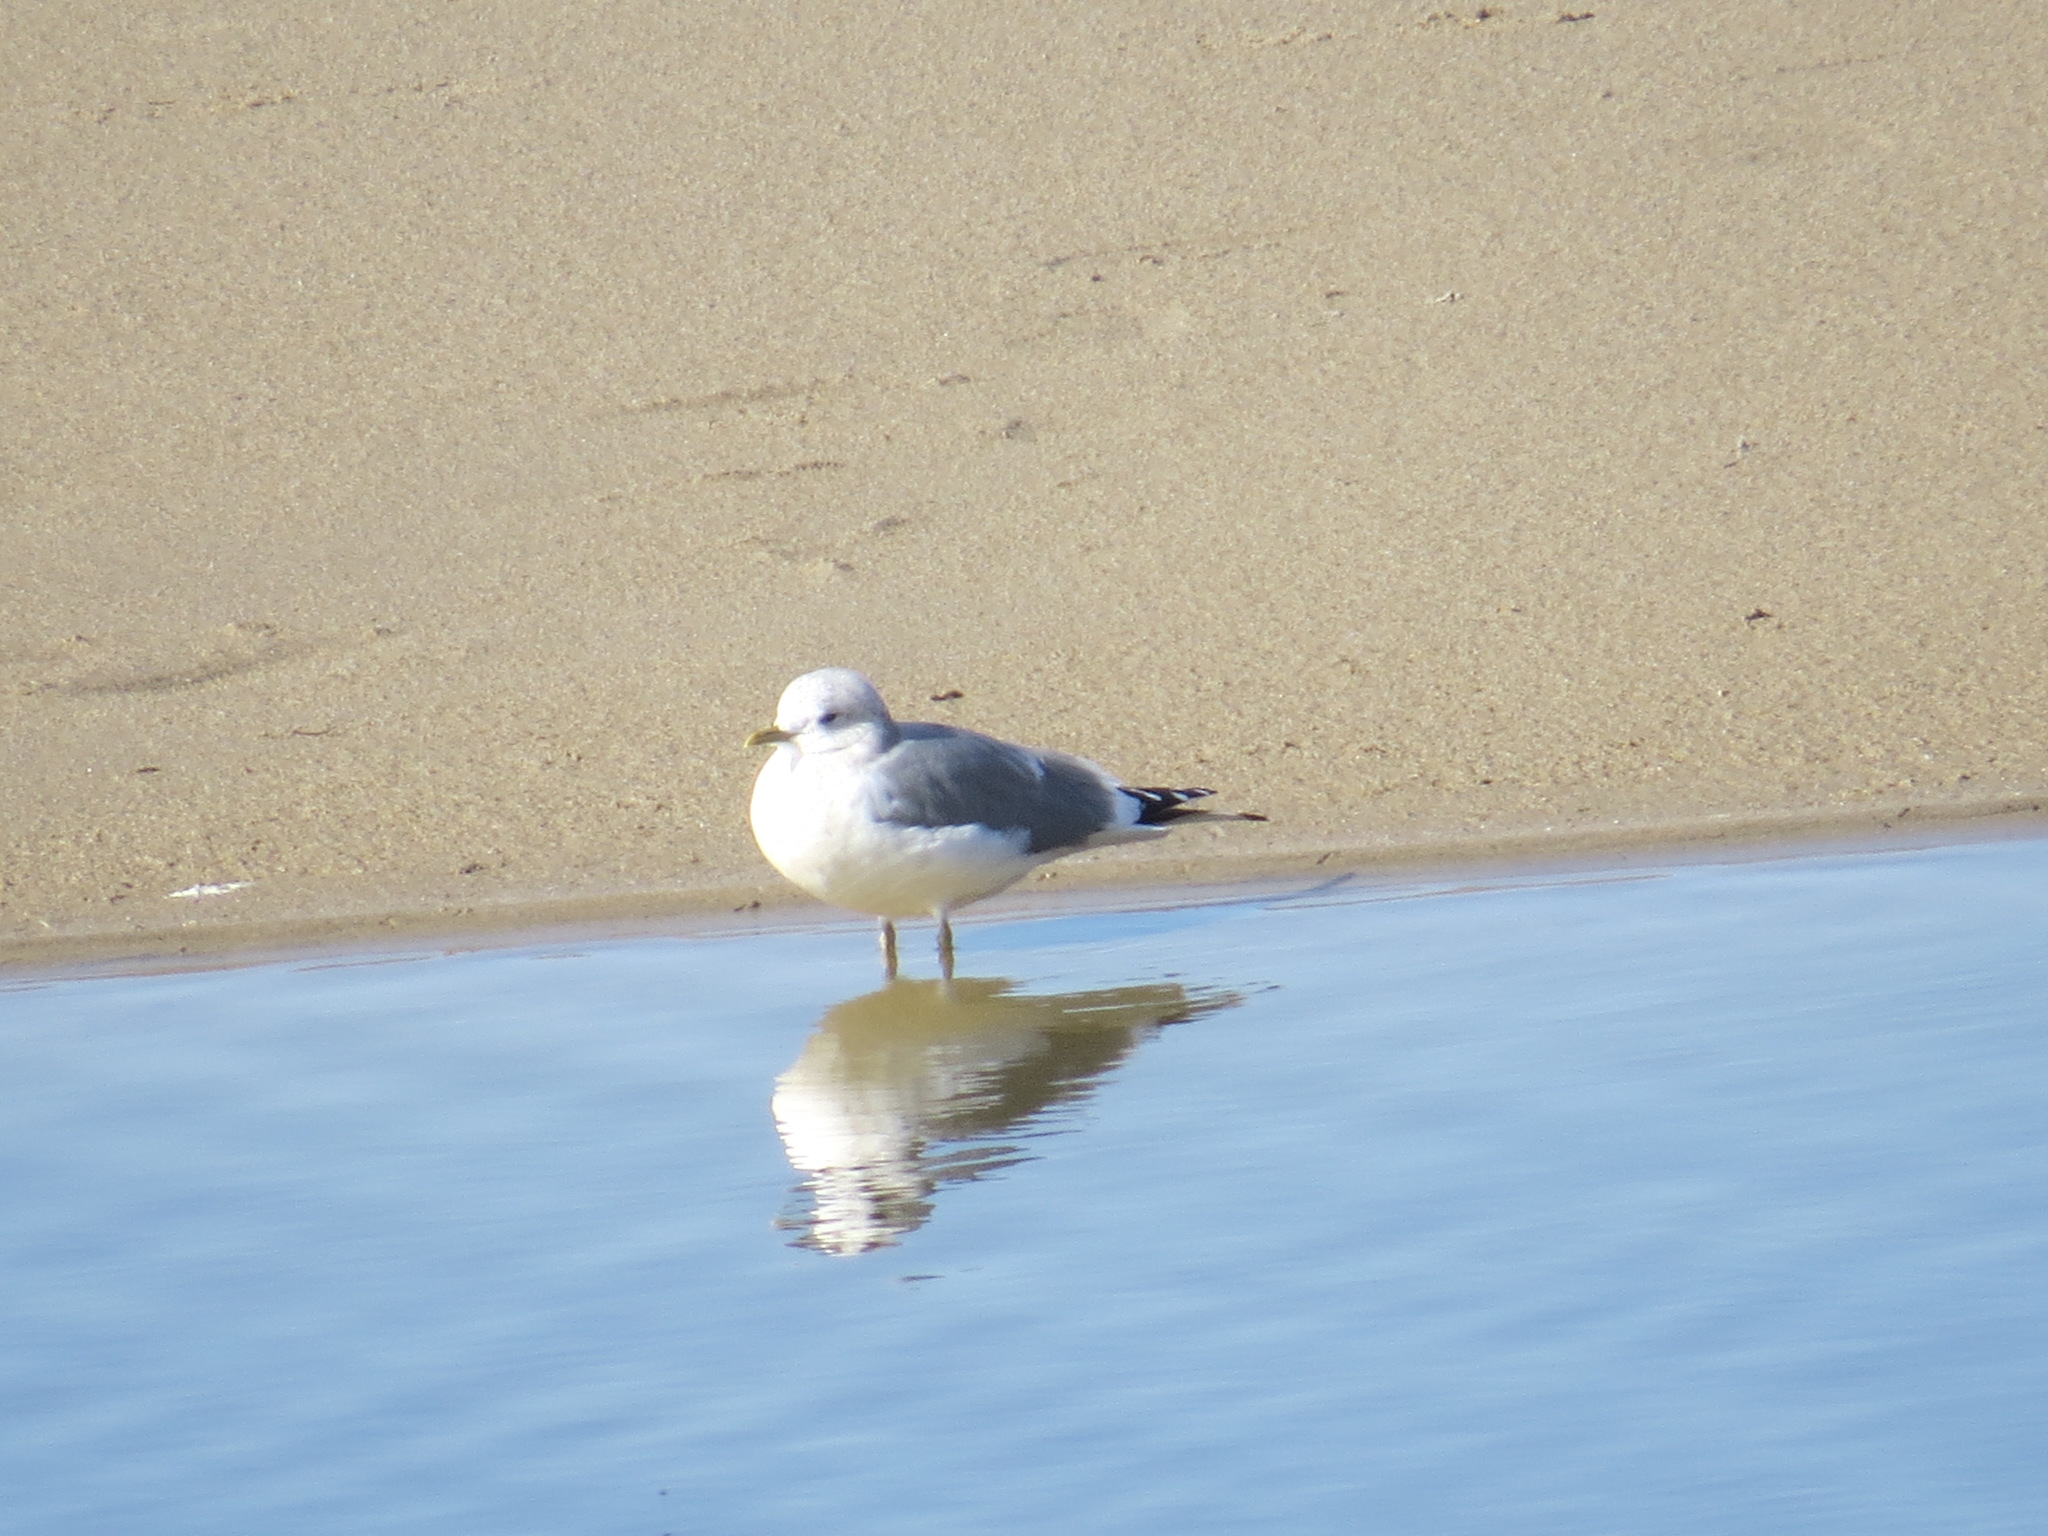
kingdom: Animalia
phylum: Chordata
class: Aves
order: Charadriiformes
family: Laridae
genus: Larus
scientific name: Larus brachyrhynchus
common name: Short-billed gull
